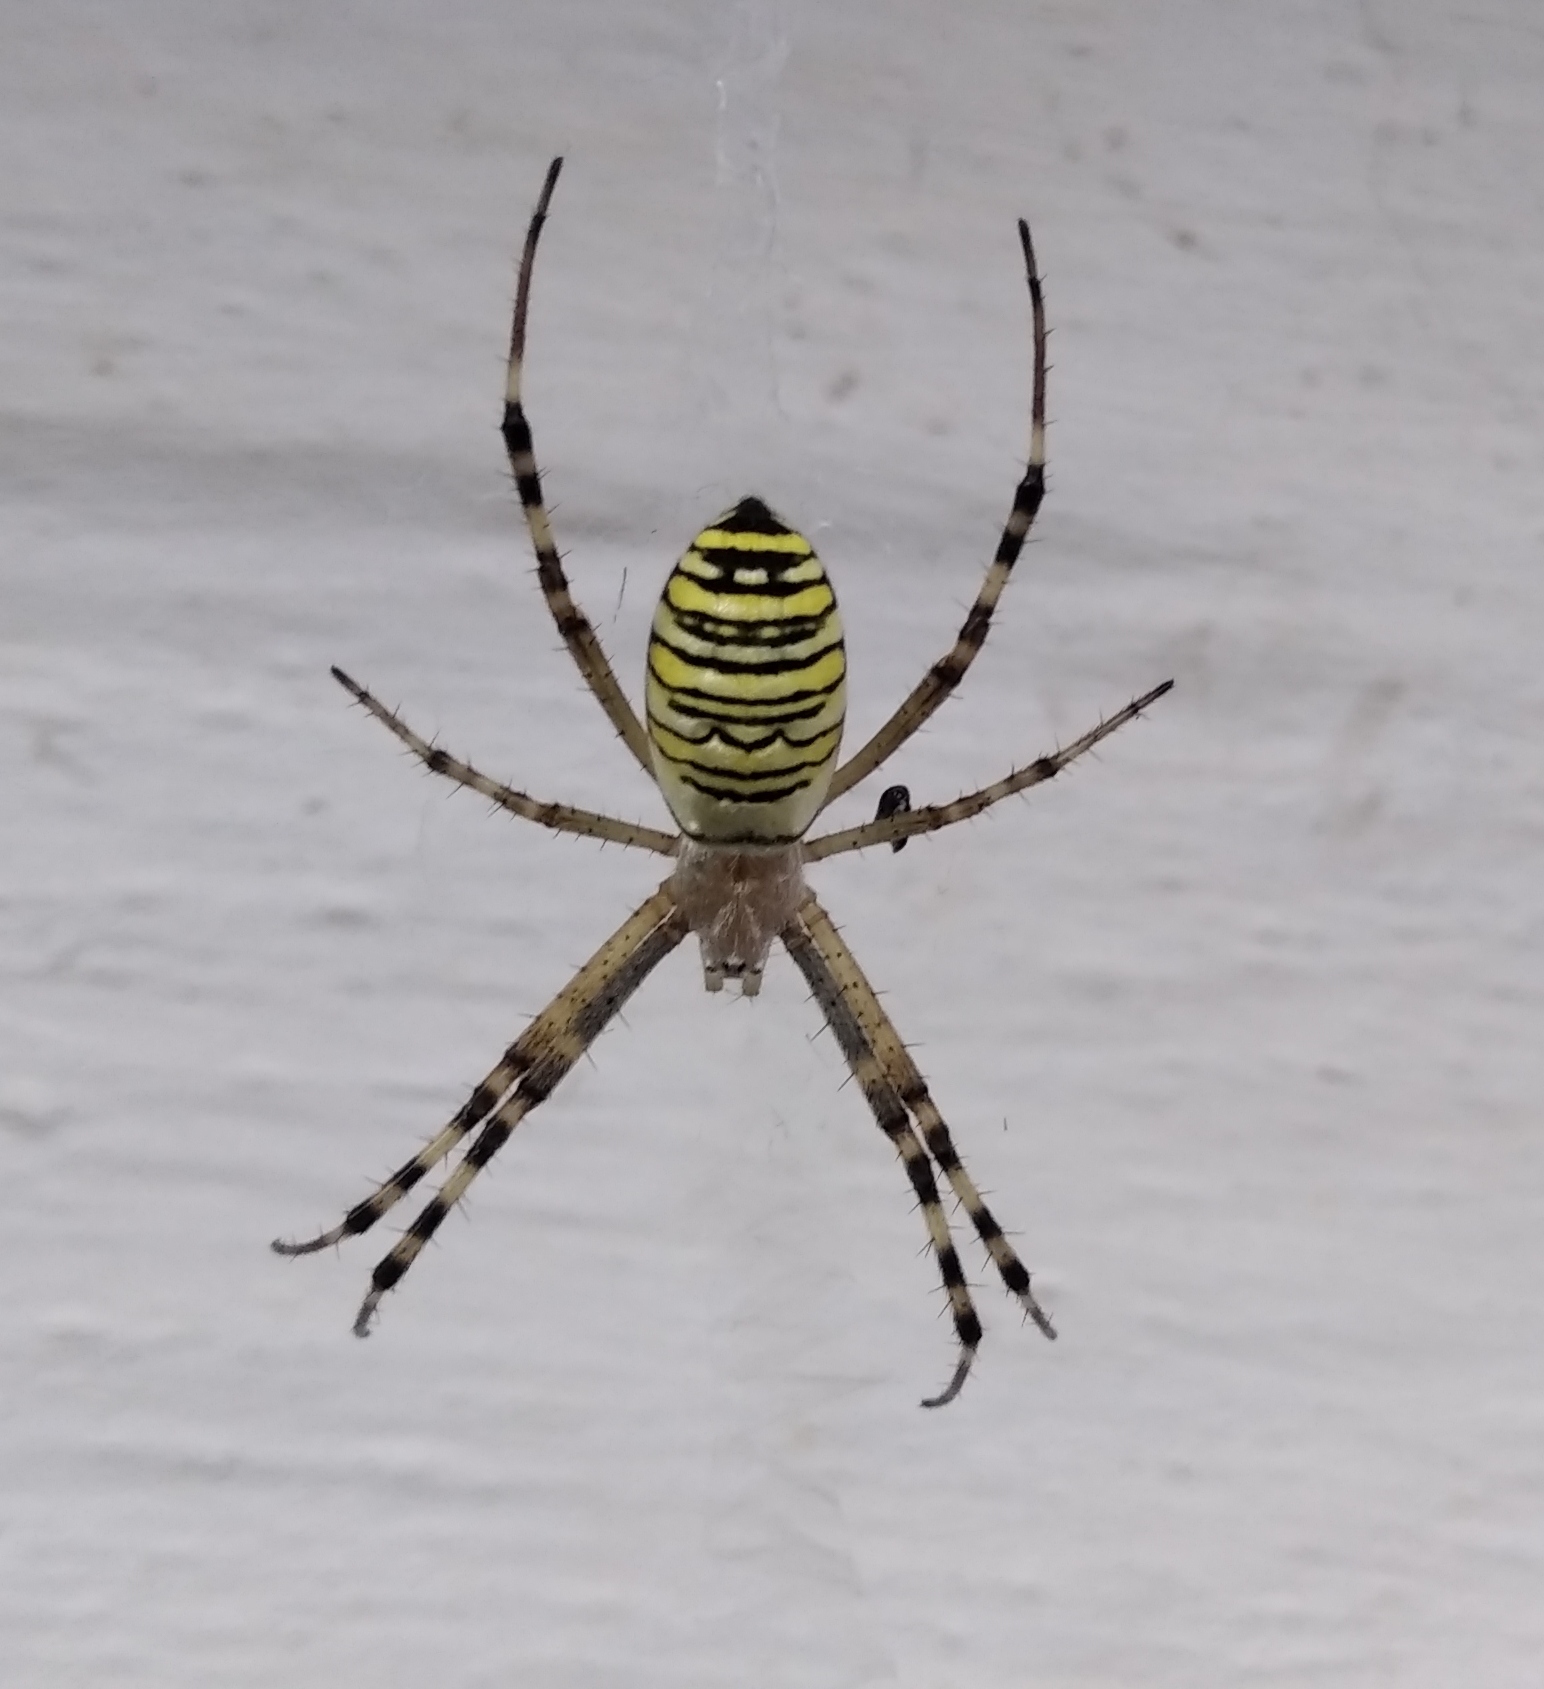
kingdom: Animalia
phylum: Arthropoda
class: Arachnida
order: Araneae
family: Araneidae
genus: Argiope
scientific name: Argiope bruennichi
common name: Wasp spider
